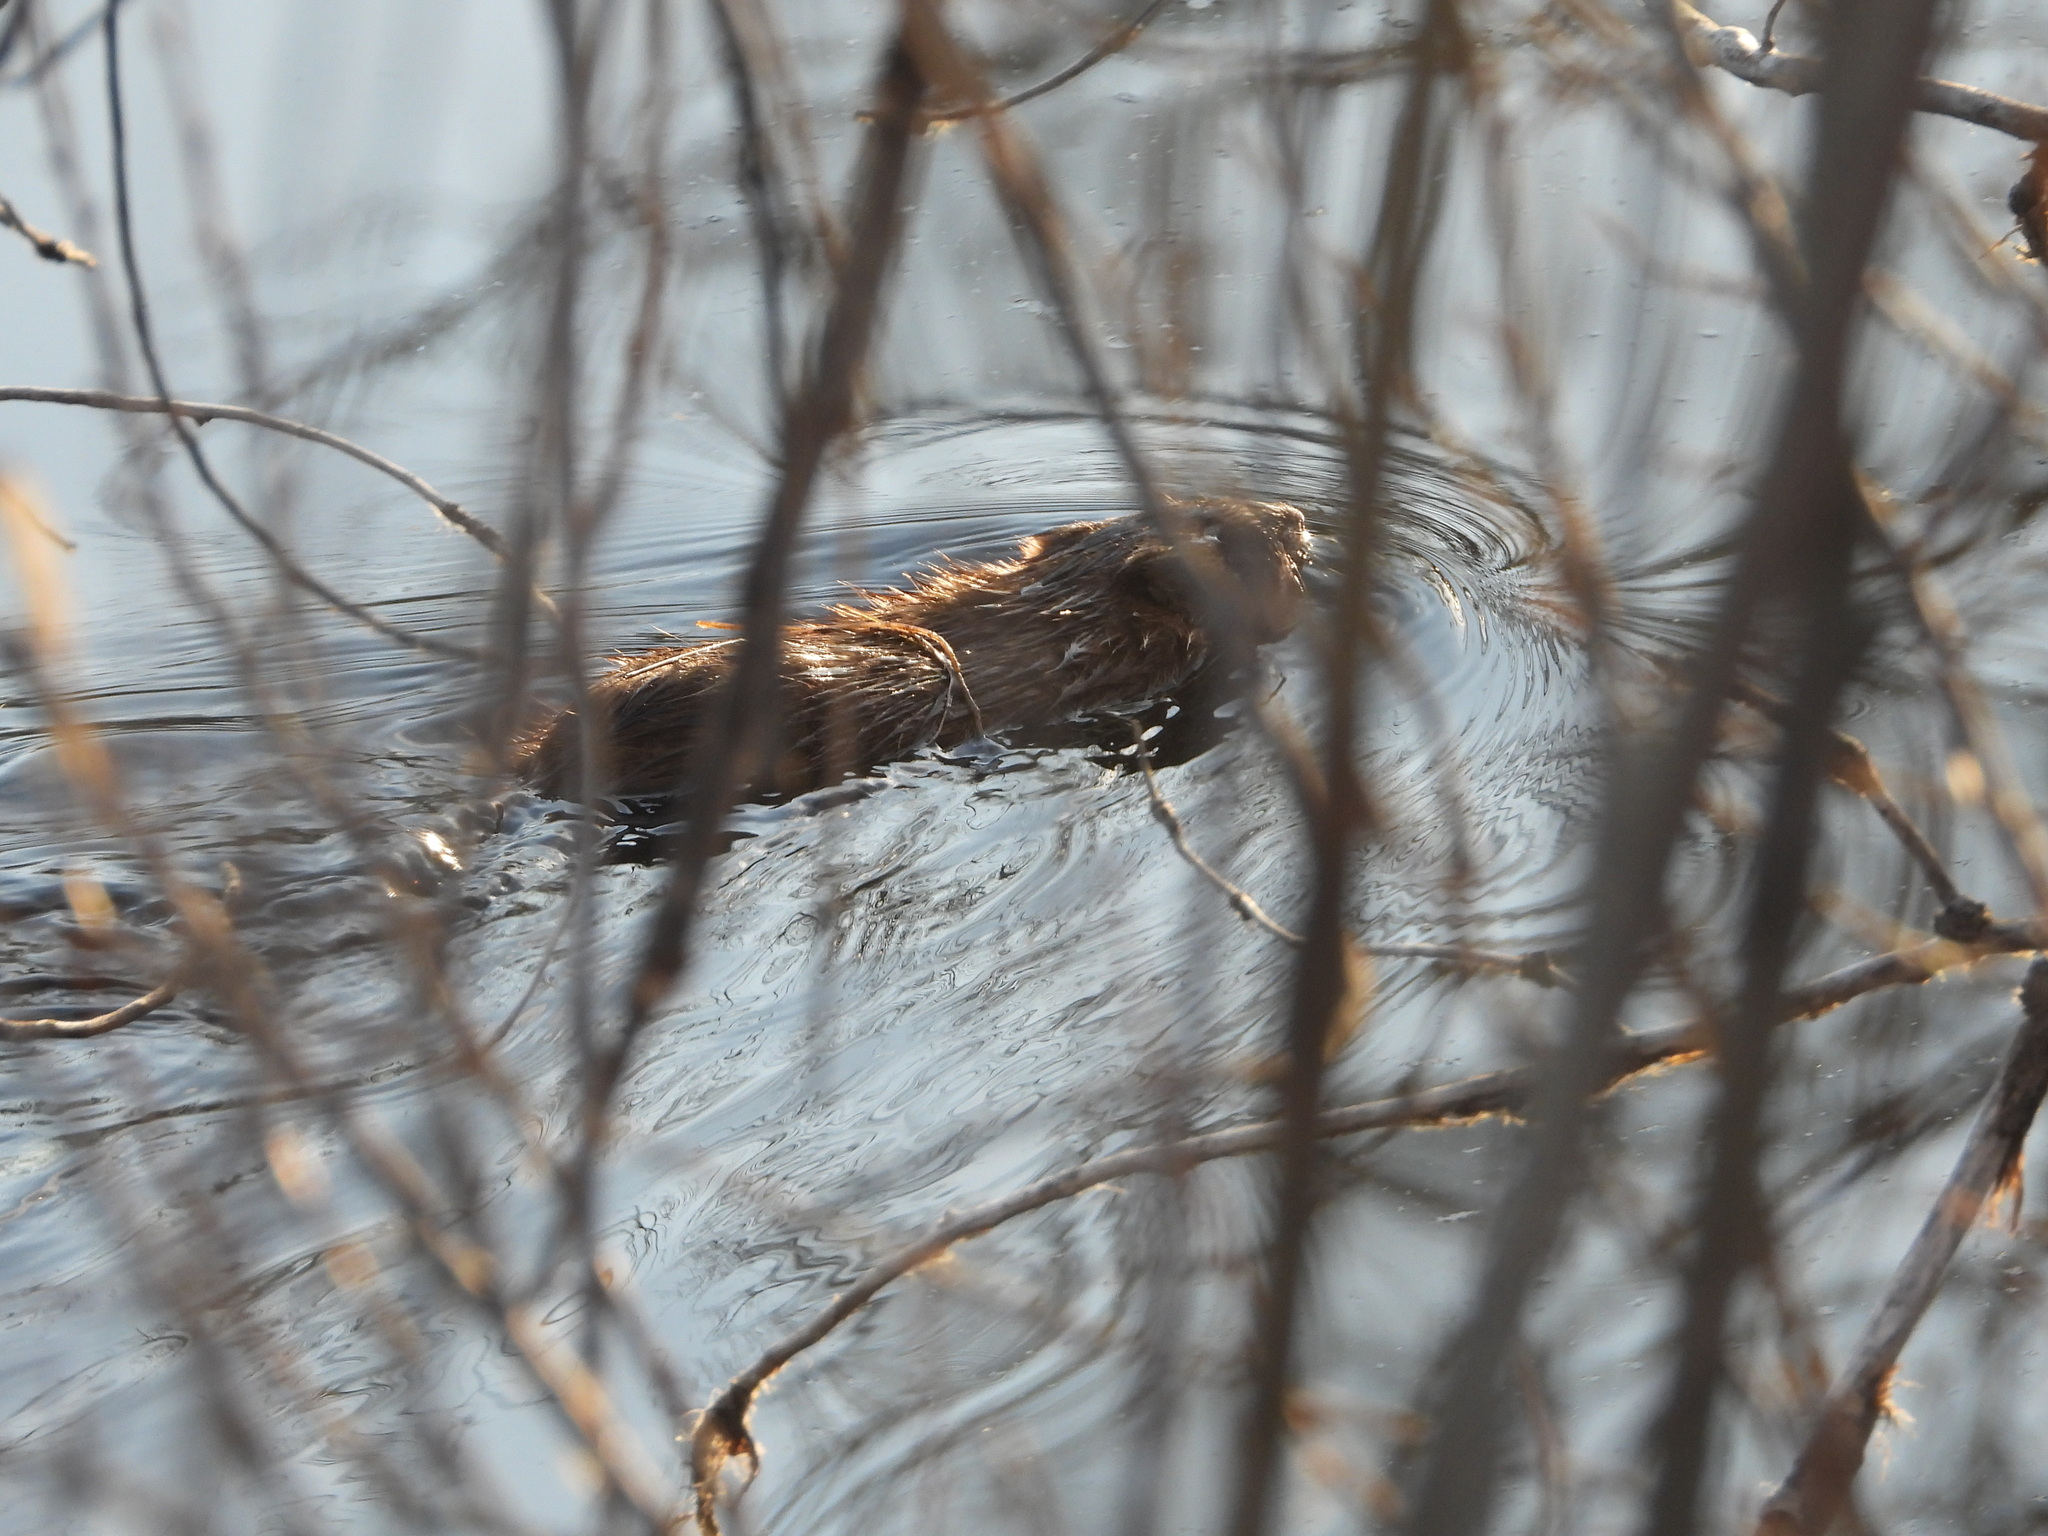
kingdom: Animalia
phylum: Chordata
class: Mammalia
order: Rodentia
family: Cricetidae
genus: Ondatra
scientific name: Ondatra zibethicus
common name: Muskrat
